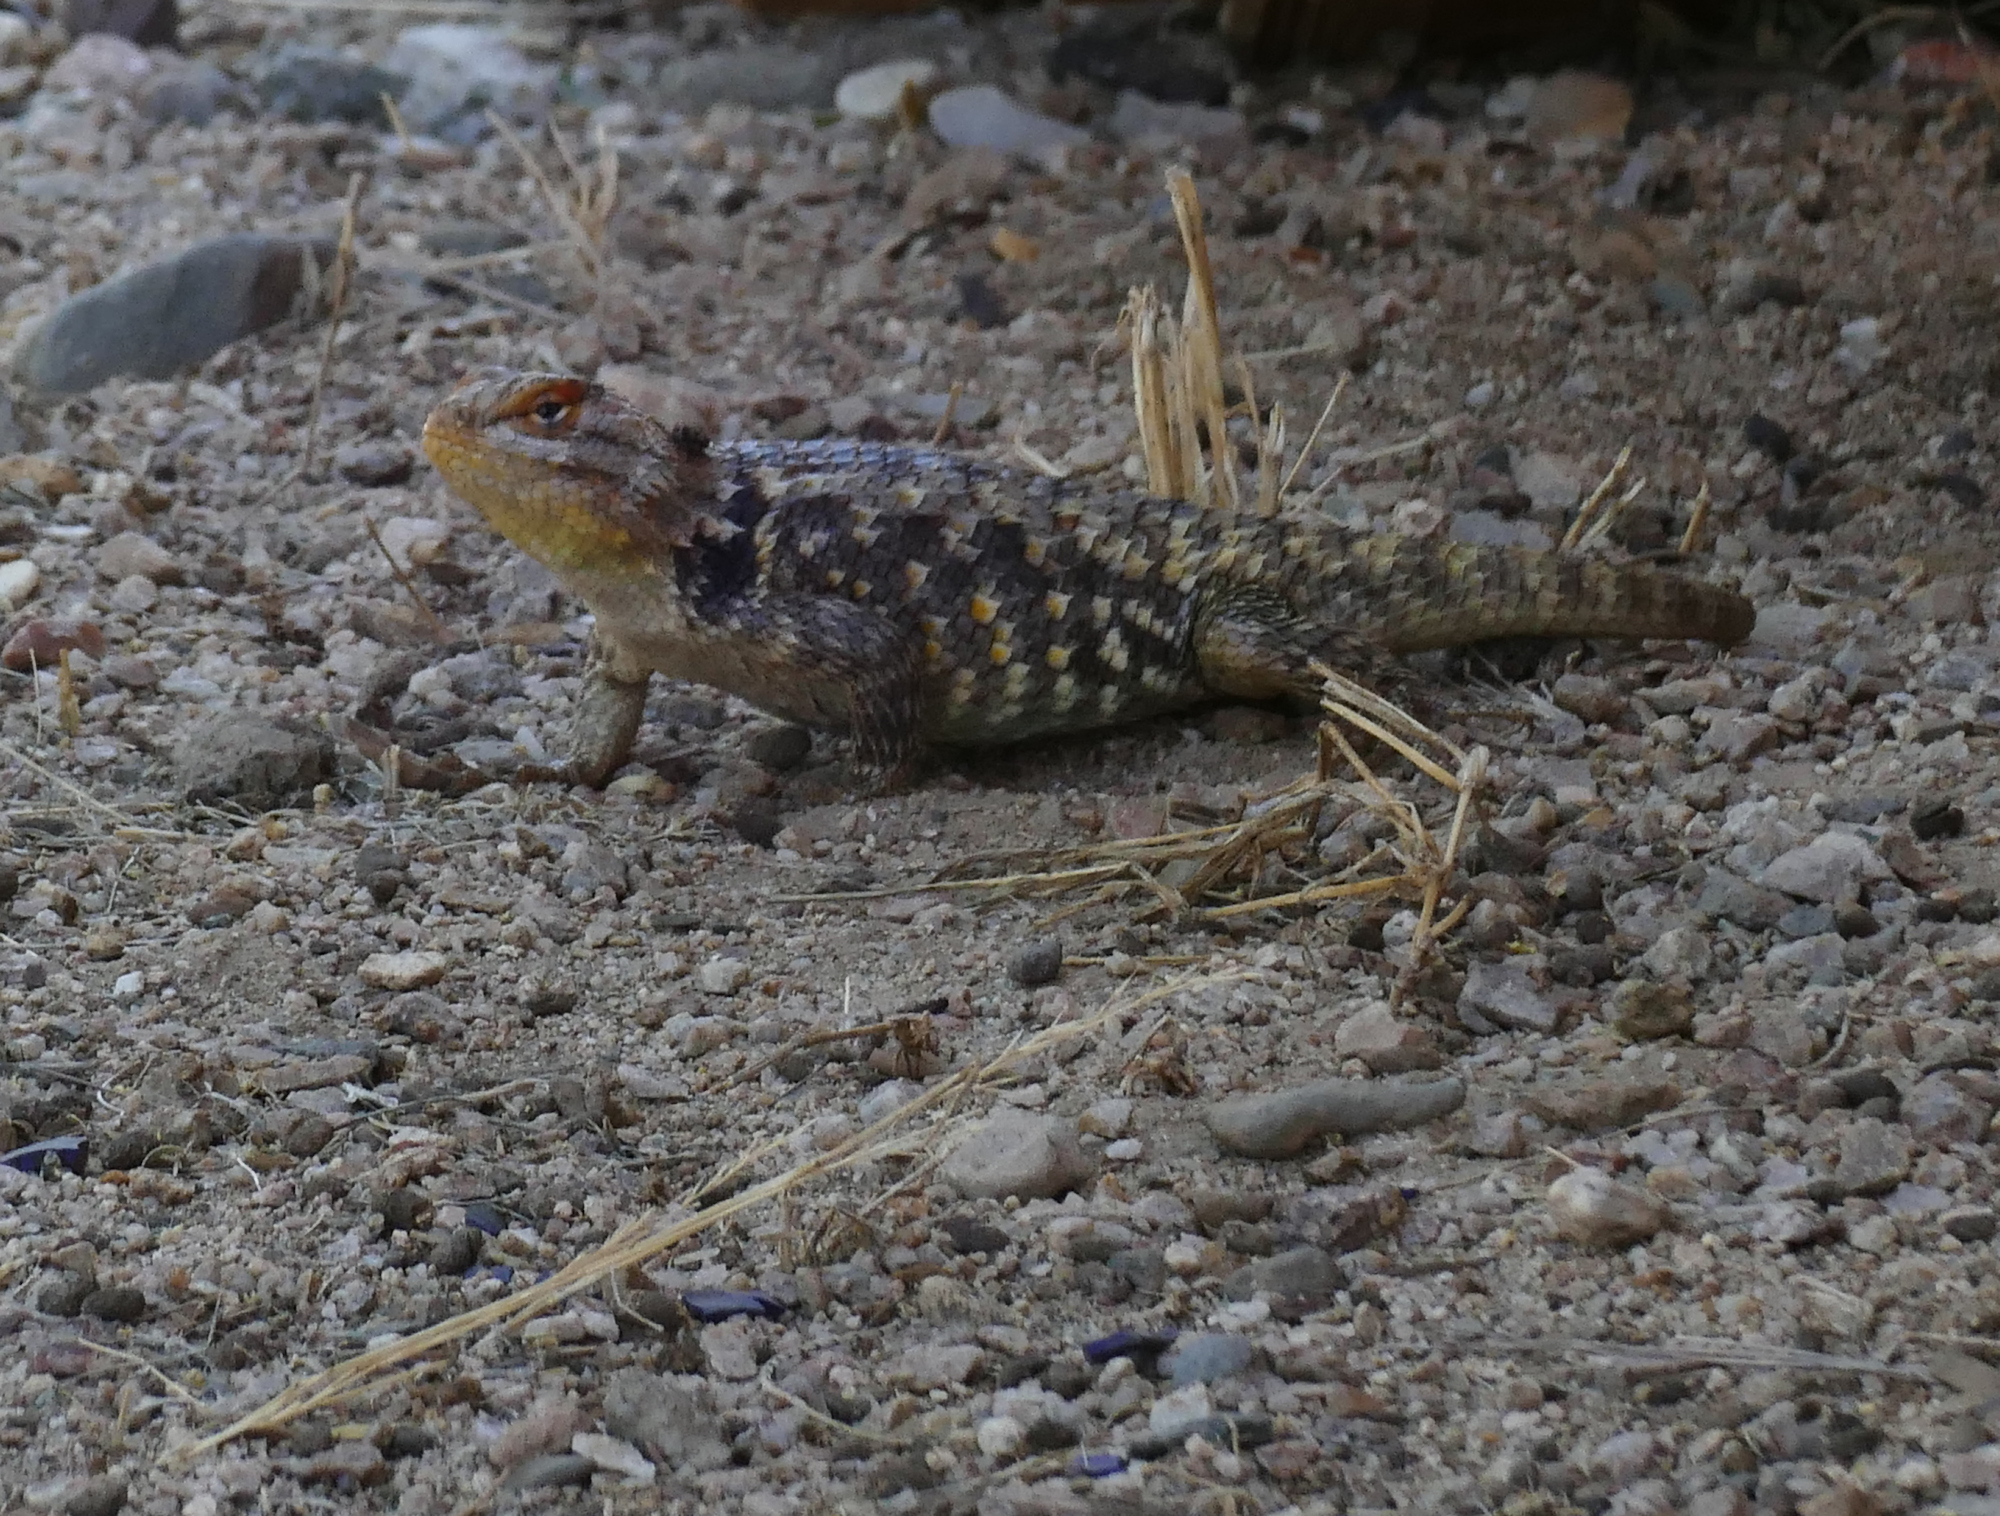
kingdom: Animalia
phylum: Chordata
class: Squamata
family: Phrynosomatidae
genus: Sceloporus
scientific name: Sceloporus magister
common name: Desert spiny lizard
